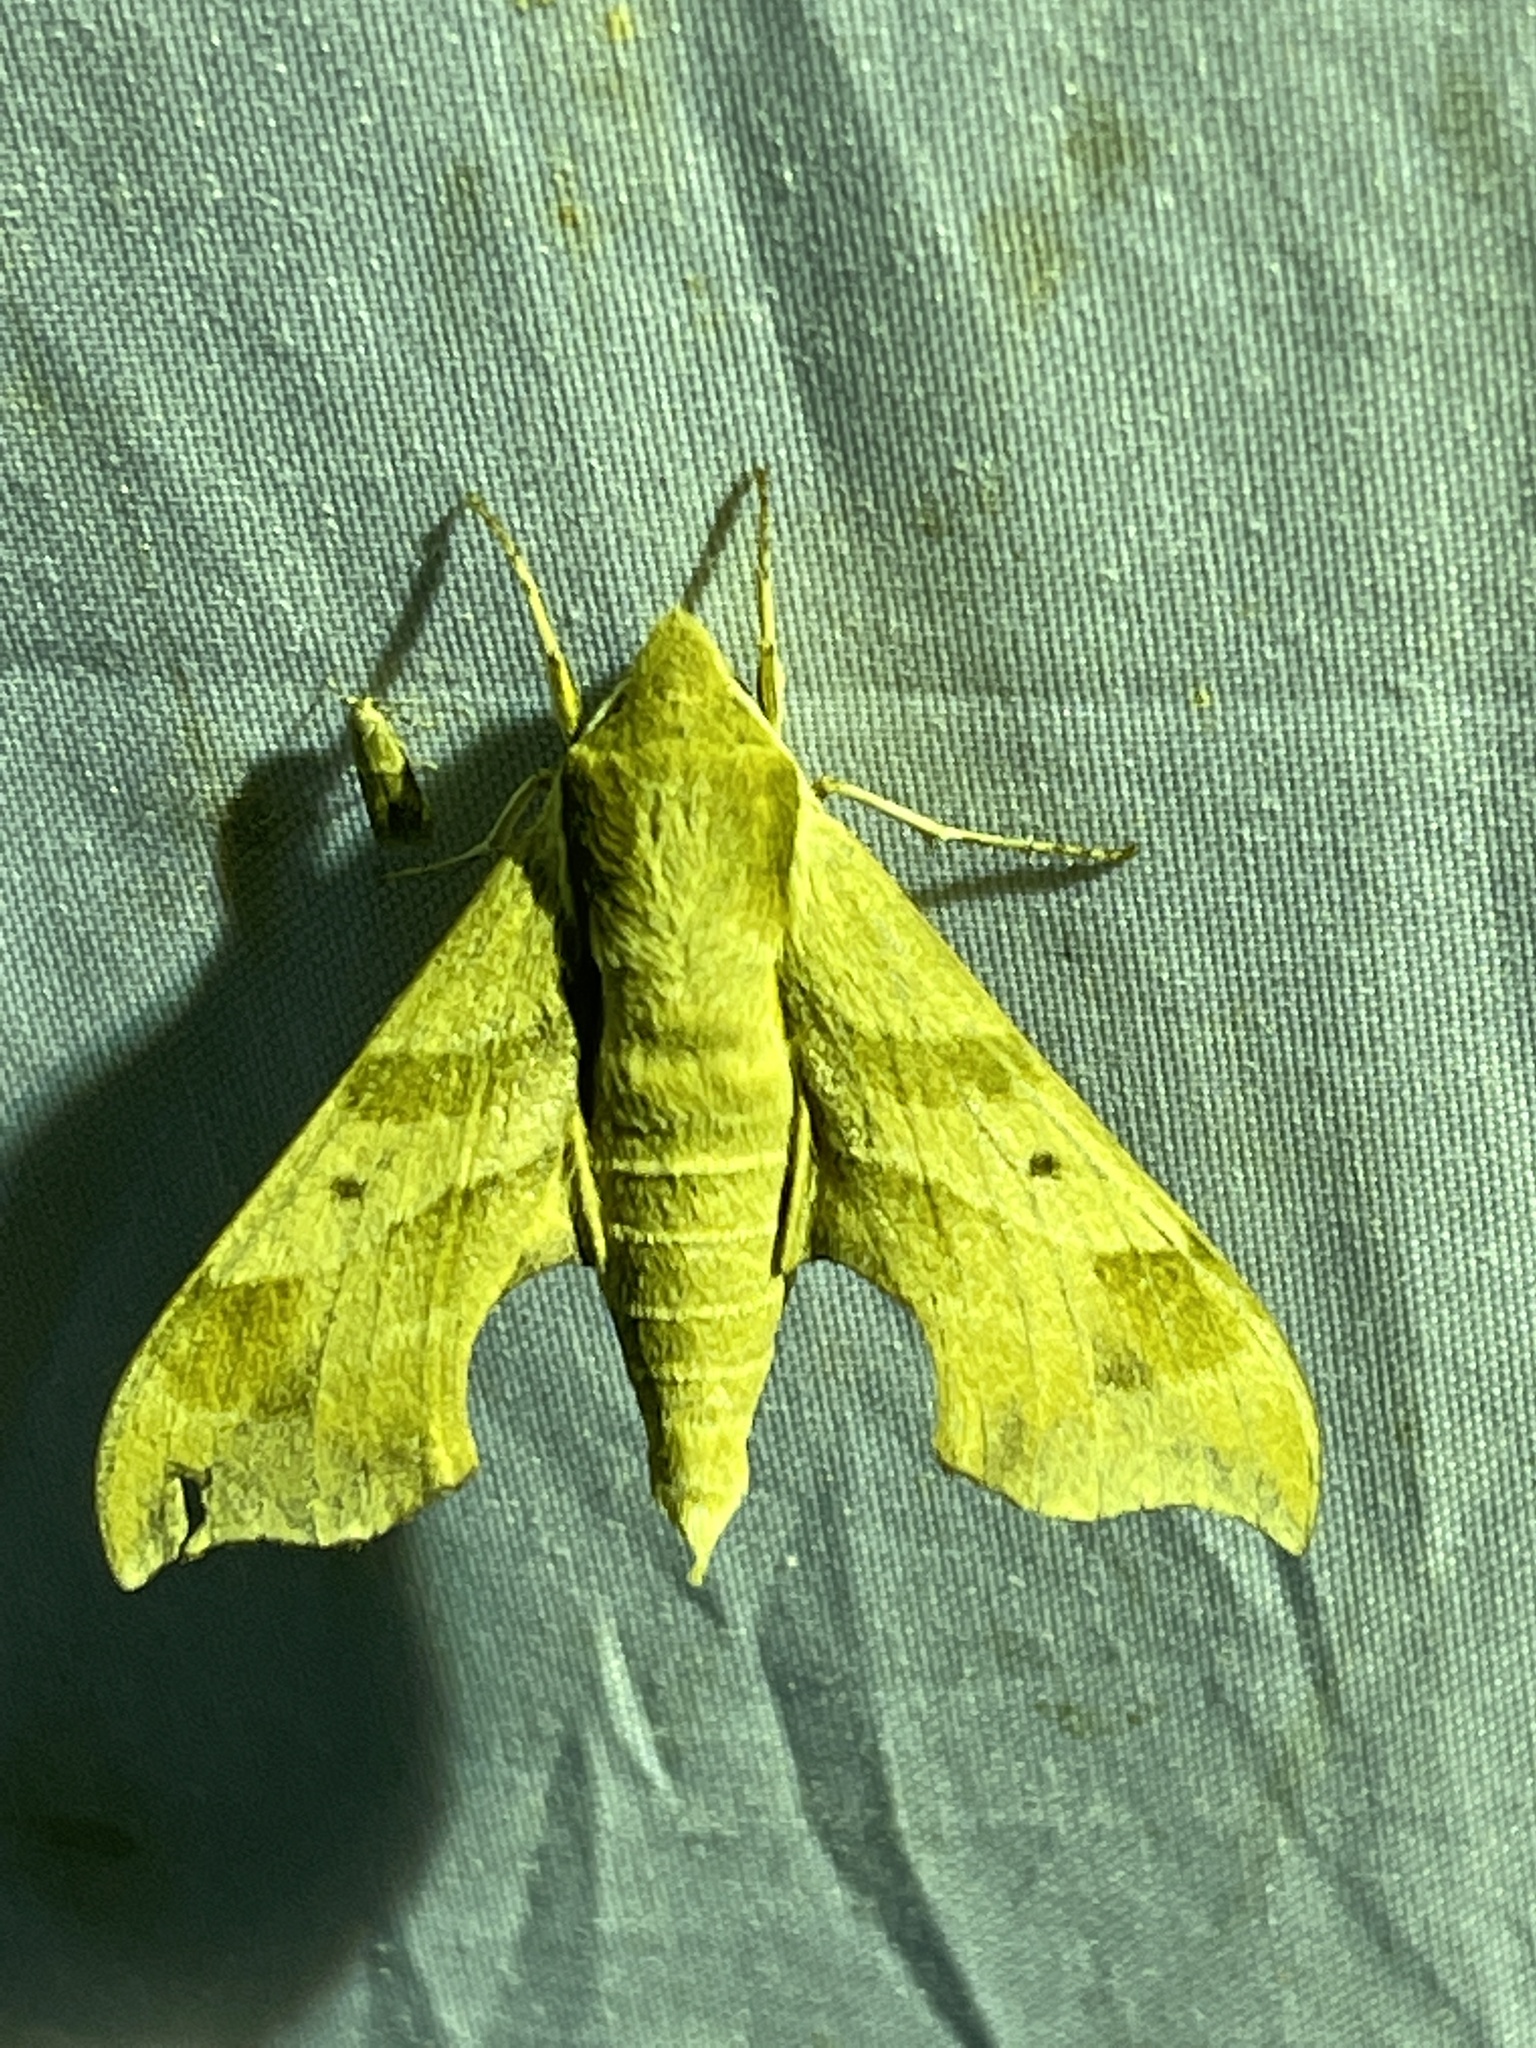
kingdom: Animalia
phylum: Arthropoda
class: Insecta
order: Lepidoptera
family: Sphingidae
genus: Darapsa
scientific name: Darapsa myron
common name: Hog sphinx
